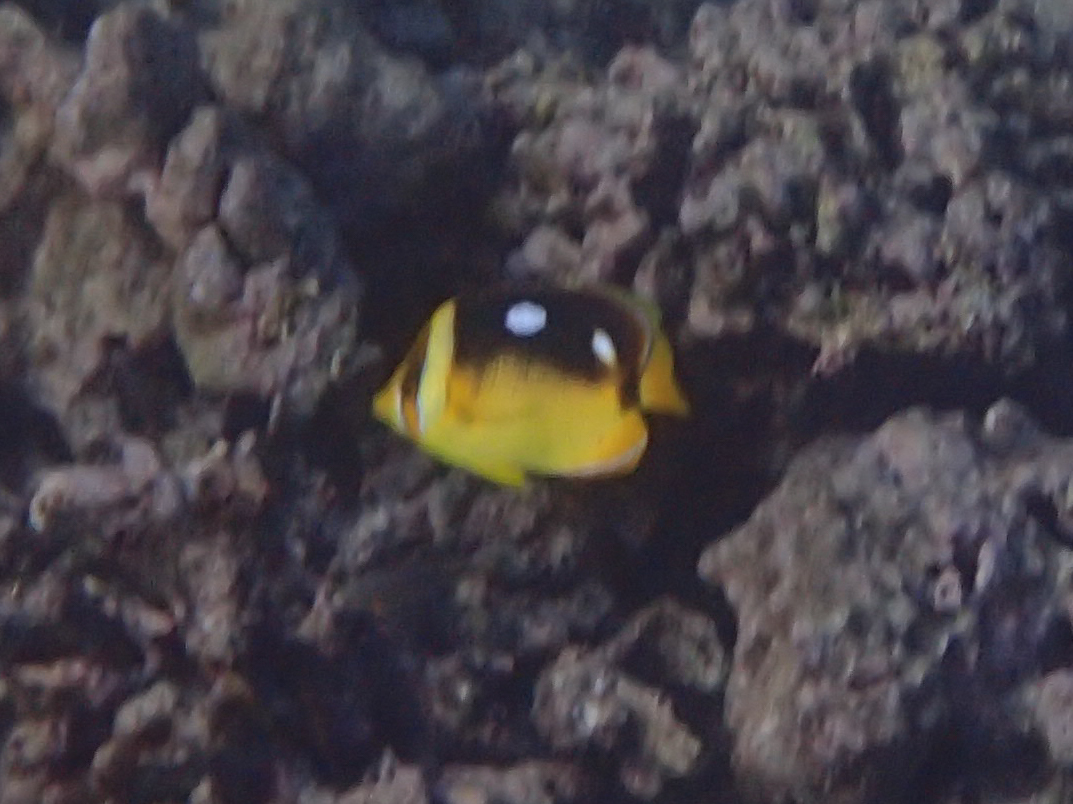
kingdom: Animalia
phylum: Chordata
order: Perciformes
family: Chaetodontidae
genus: Chaetodon
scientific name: Chaetodon quadrimaculatus
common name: Fourspot butterflyfish
